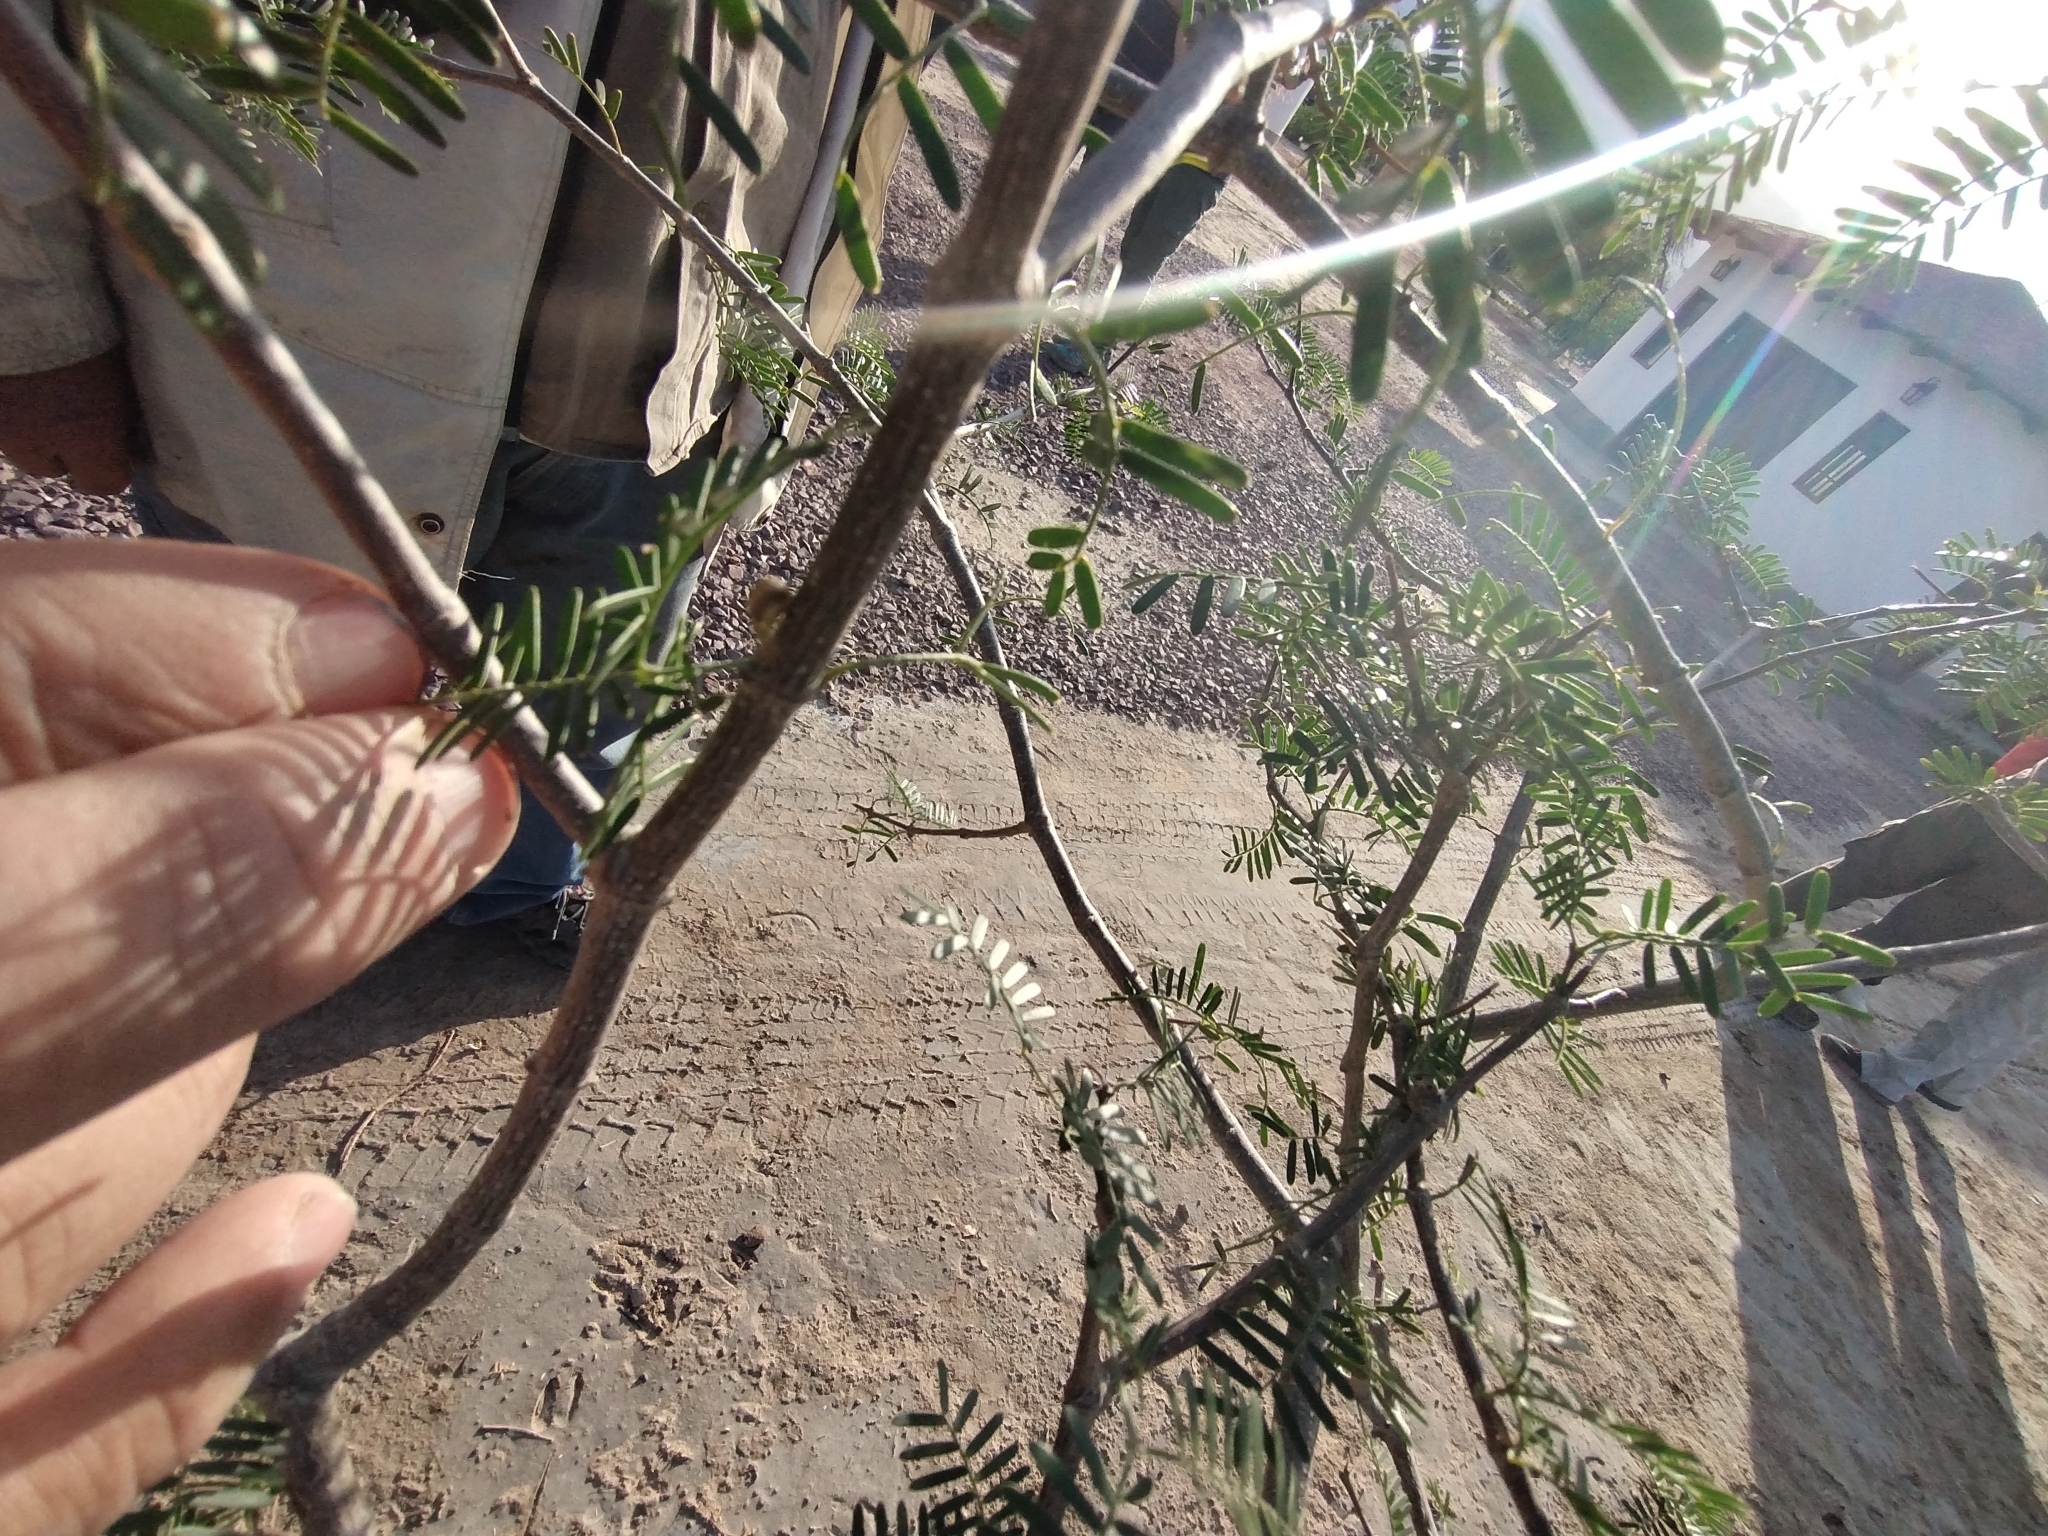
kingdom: Plantae
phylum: Tracheophyta
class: Magnoliopsida
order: Zygophyllales
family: Zygophyllaceae
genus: Gonopterodendron
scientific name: Gonopterodendron bonariense
